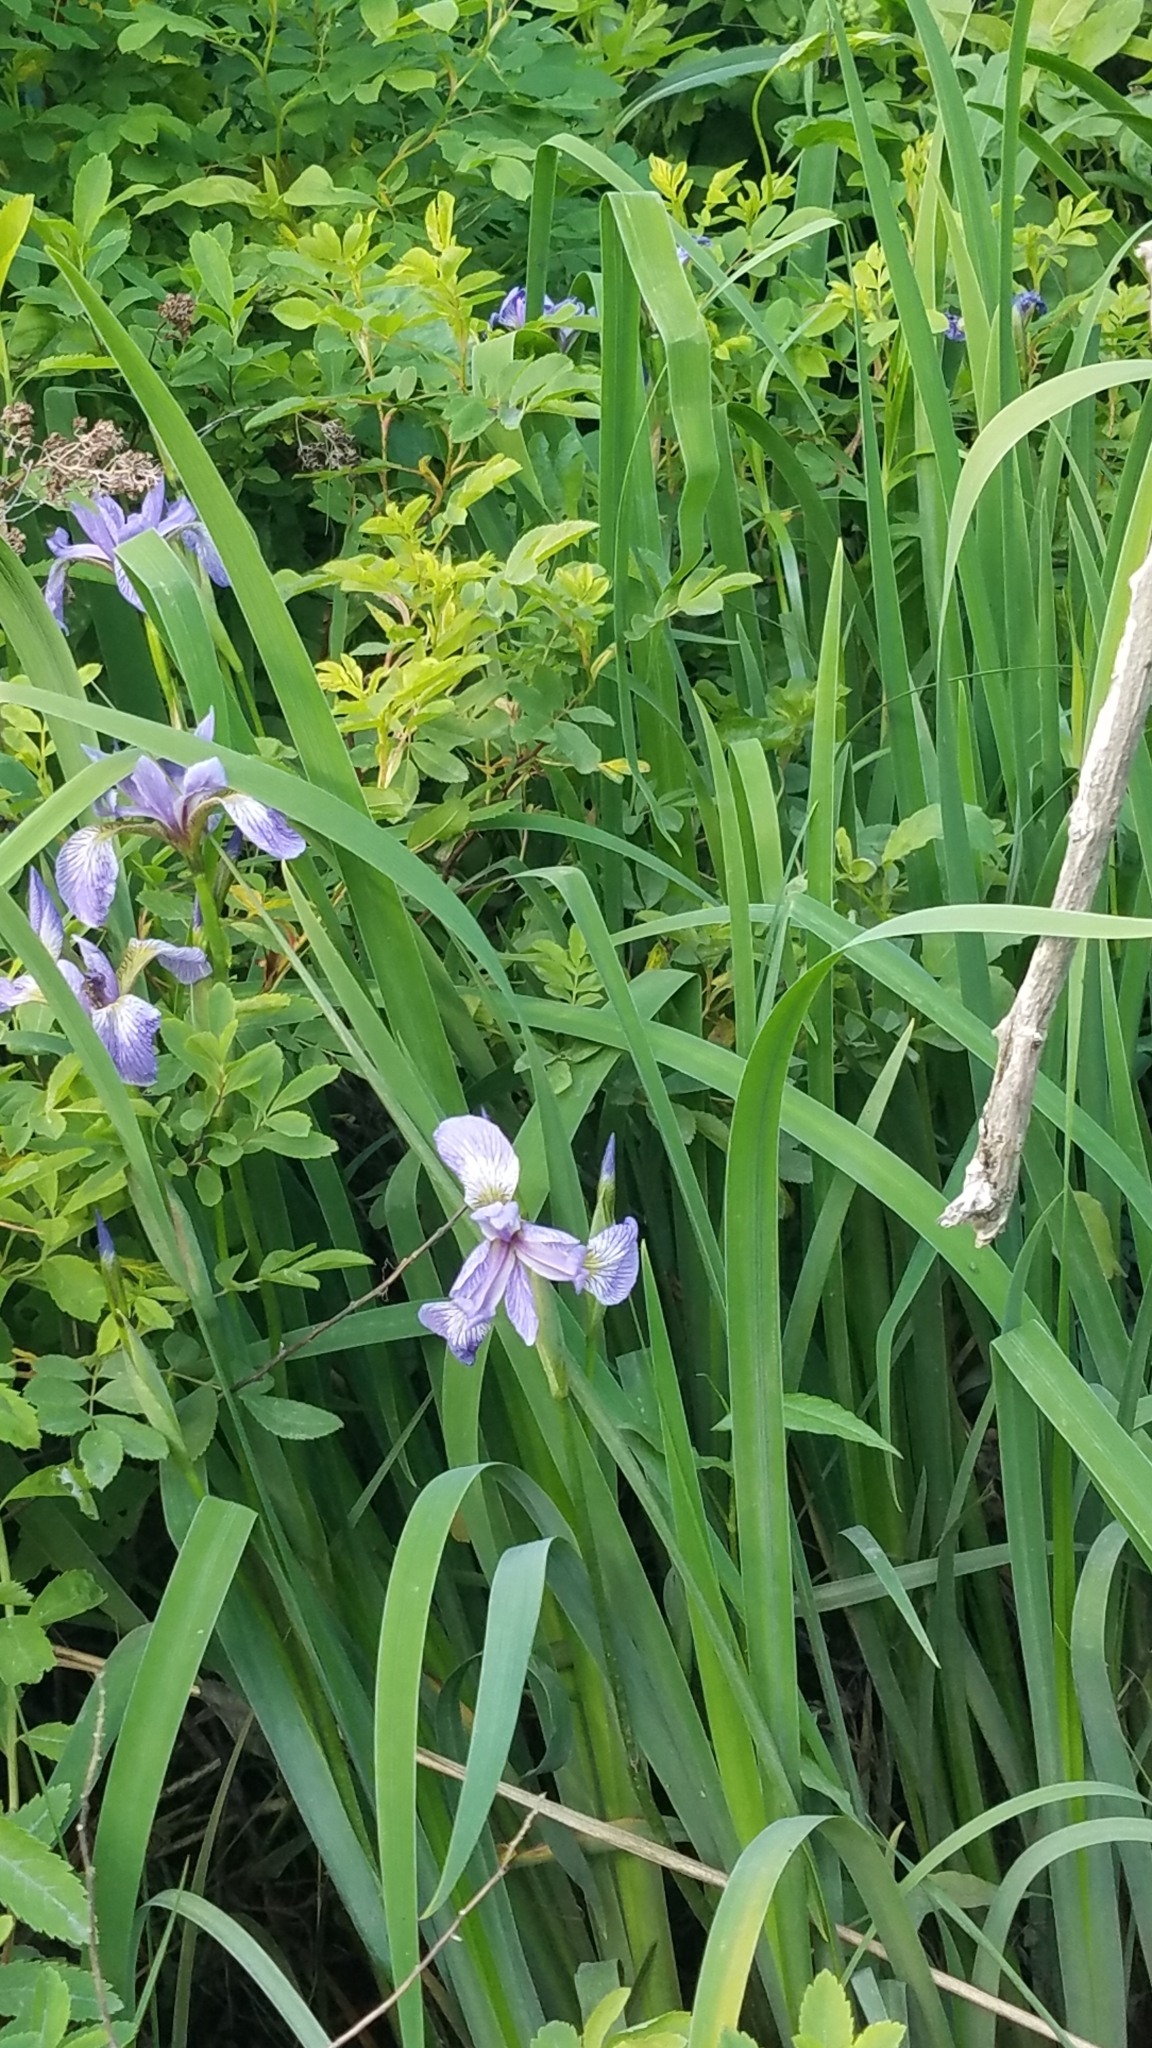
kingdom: Plantae
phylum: Tracheophyta
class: Liliopsida
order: Asparagales
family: Iridaceae
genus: Iris
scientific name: Iris versicolor
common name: Purple iris
